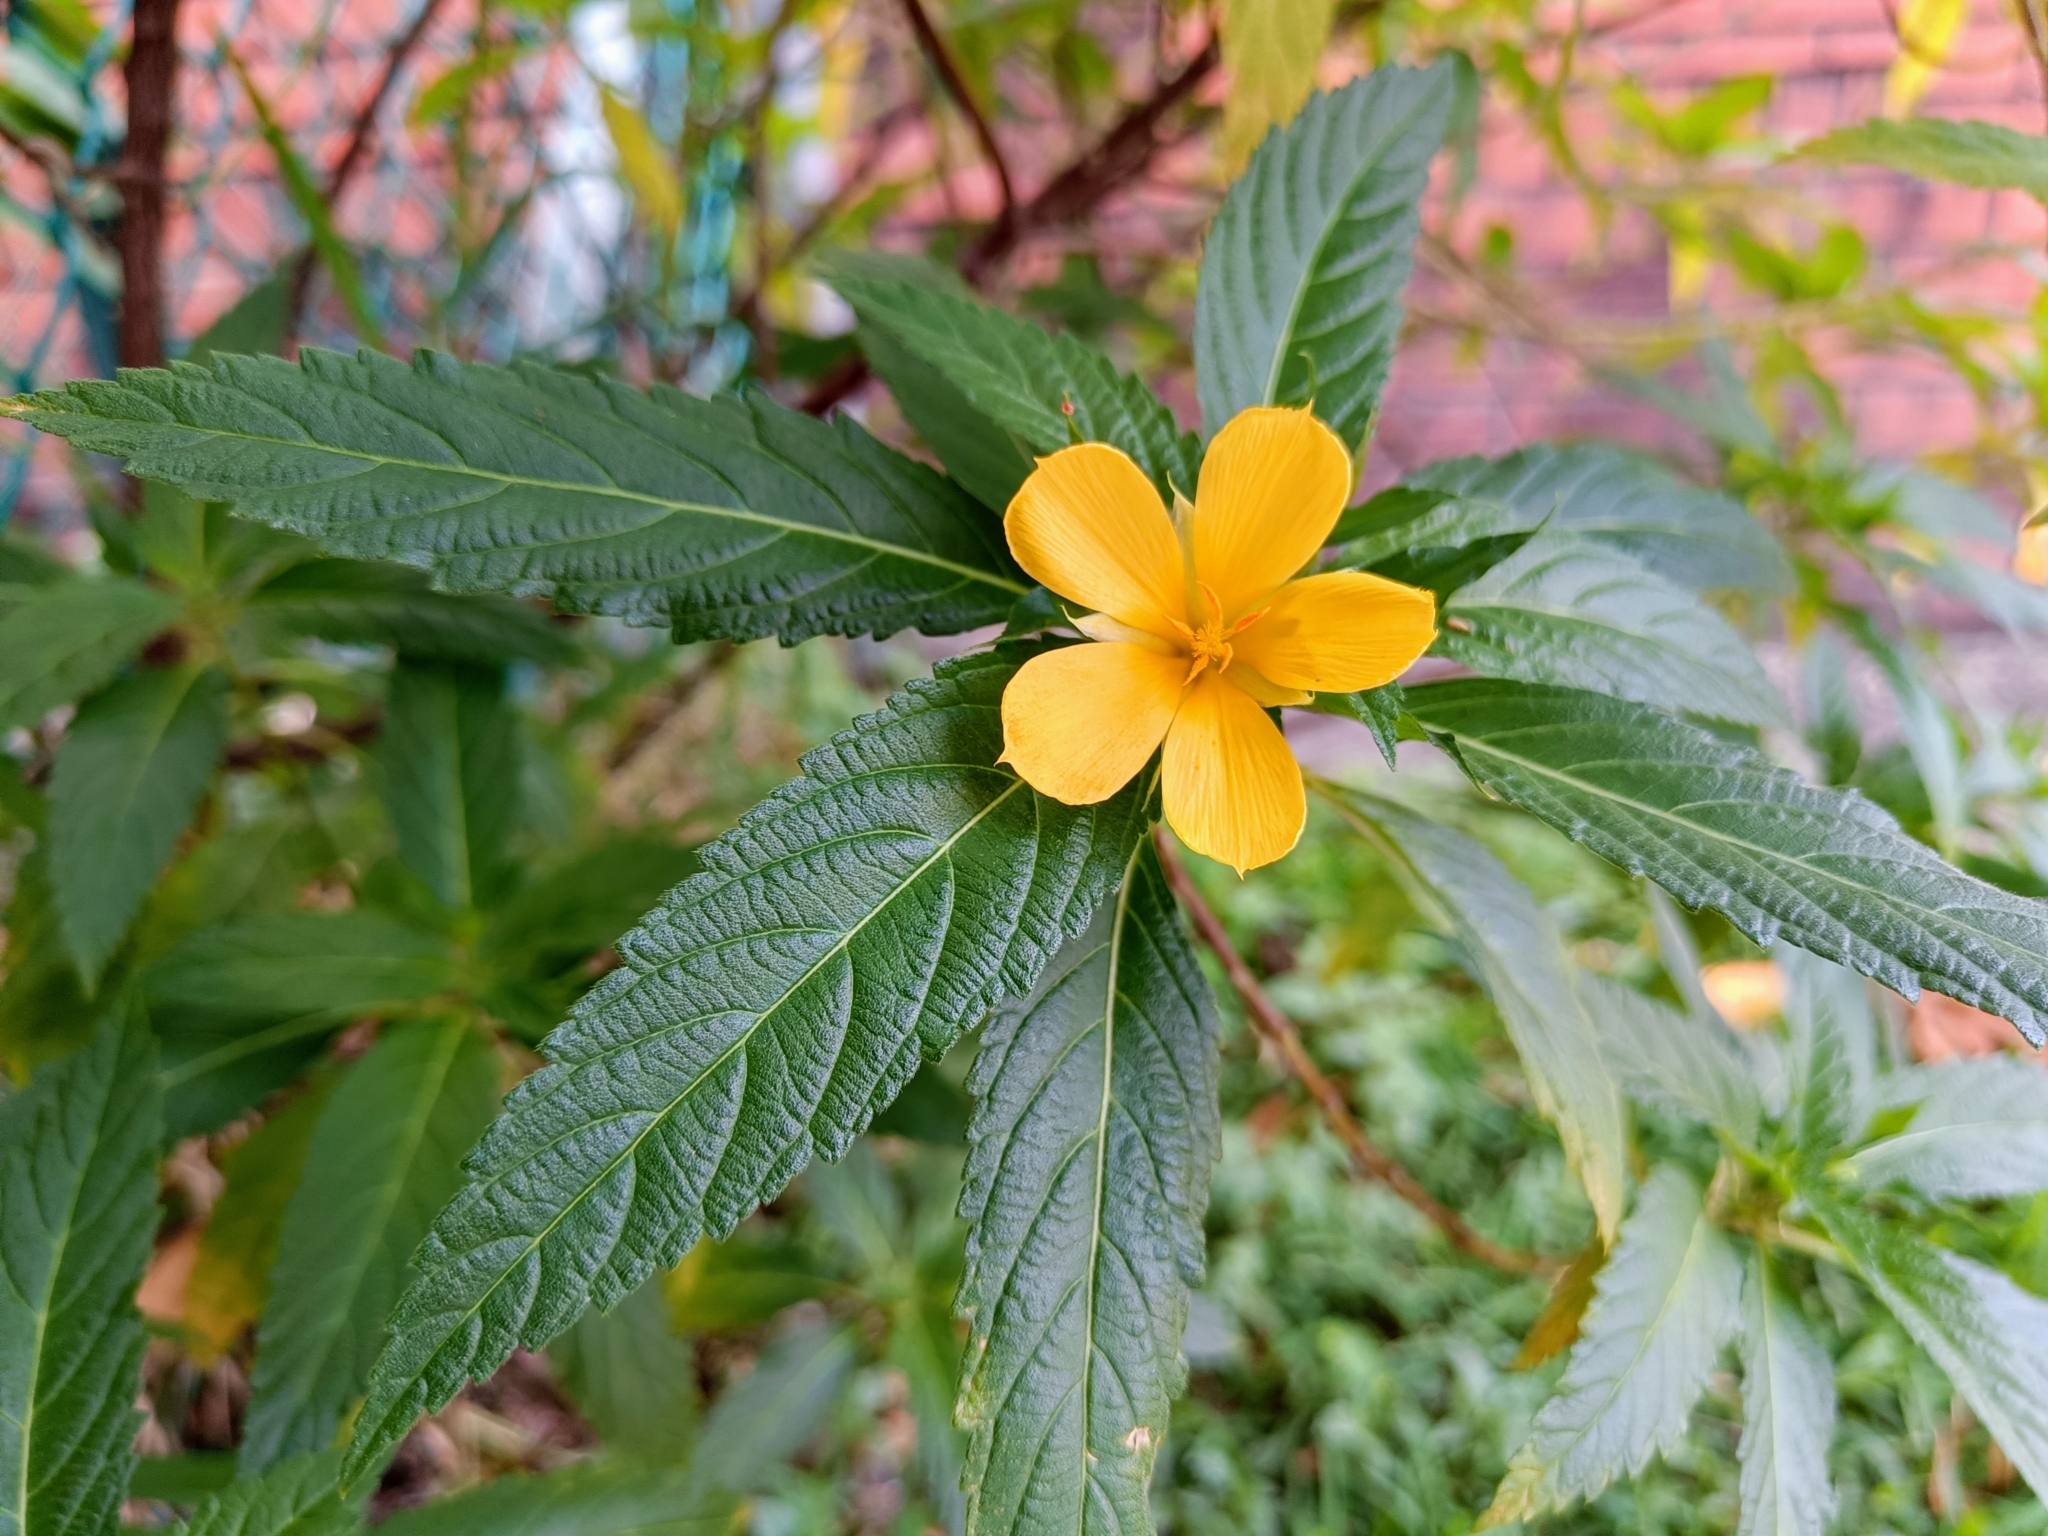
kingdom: Plantae
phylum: Tracheophyta
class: Magnoliopsida
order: Malpighiales
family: Turneraceae
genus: Turnera
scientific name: Turnera ulmifolia
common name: Ramgoat dashalong
